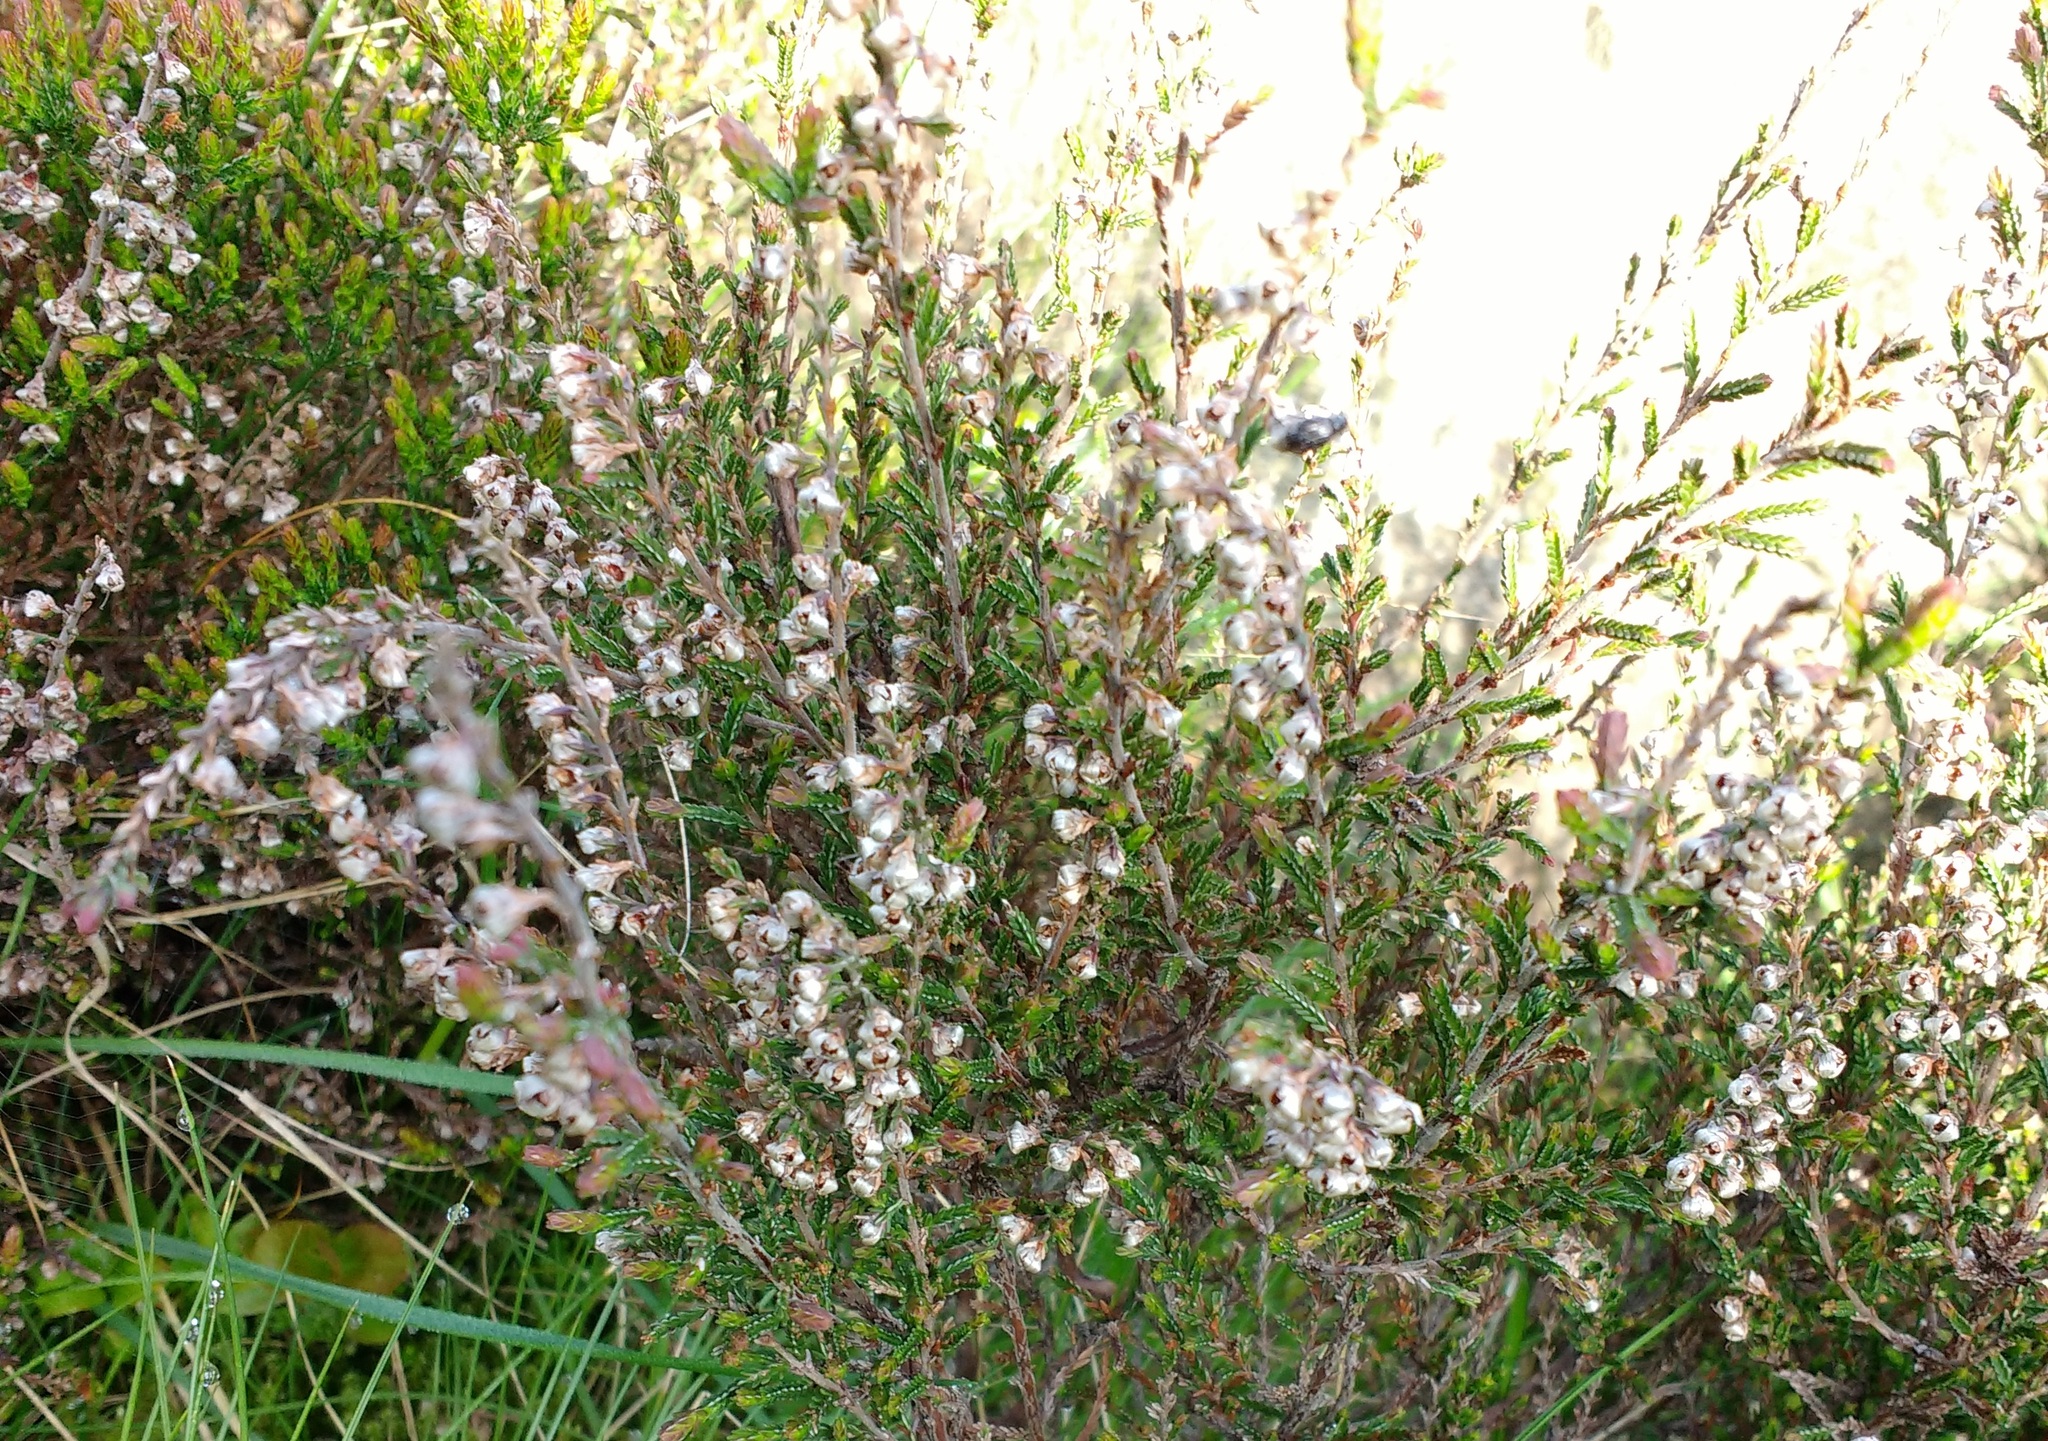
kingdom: Plantae
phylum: Tracheophyta
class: Magnoliopsida
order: Ericales
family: Ericaceae
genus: Calluna
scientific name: Calluna vulgaris
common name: Heather
